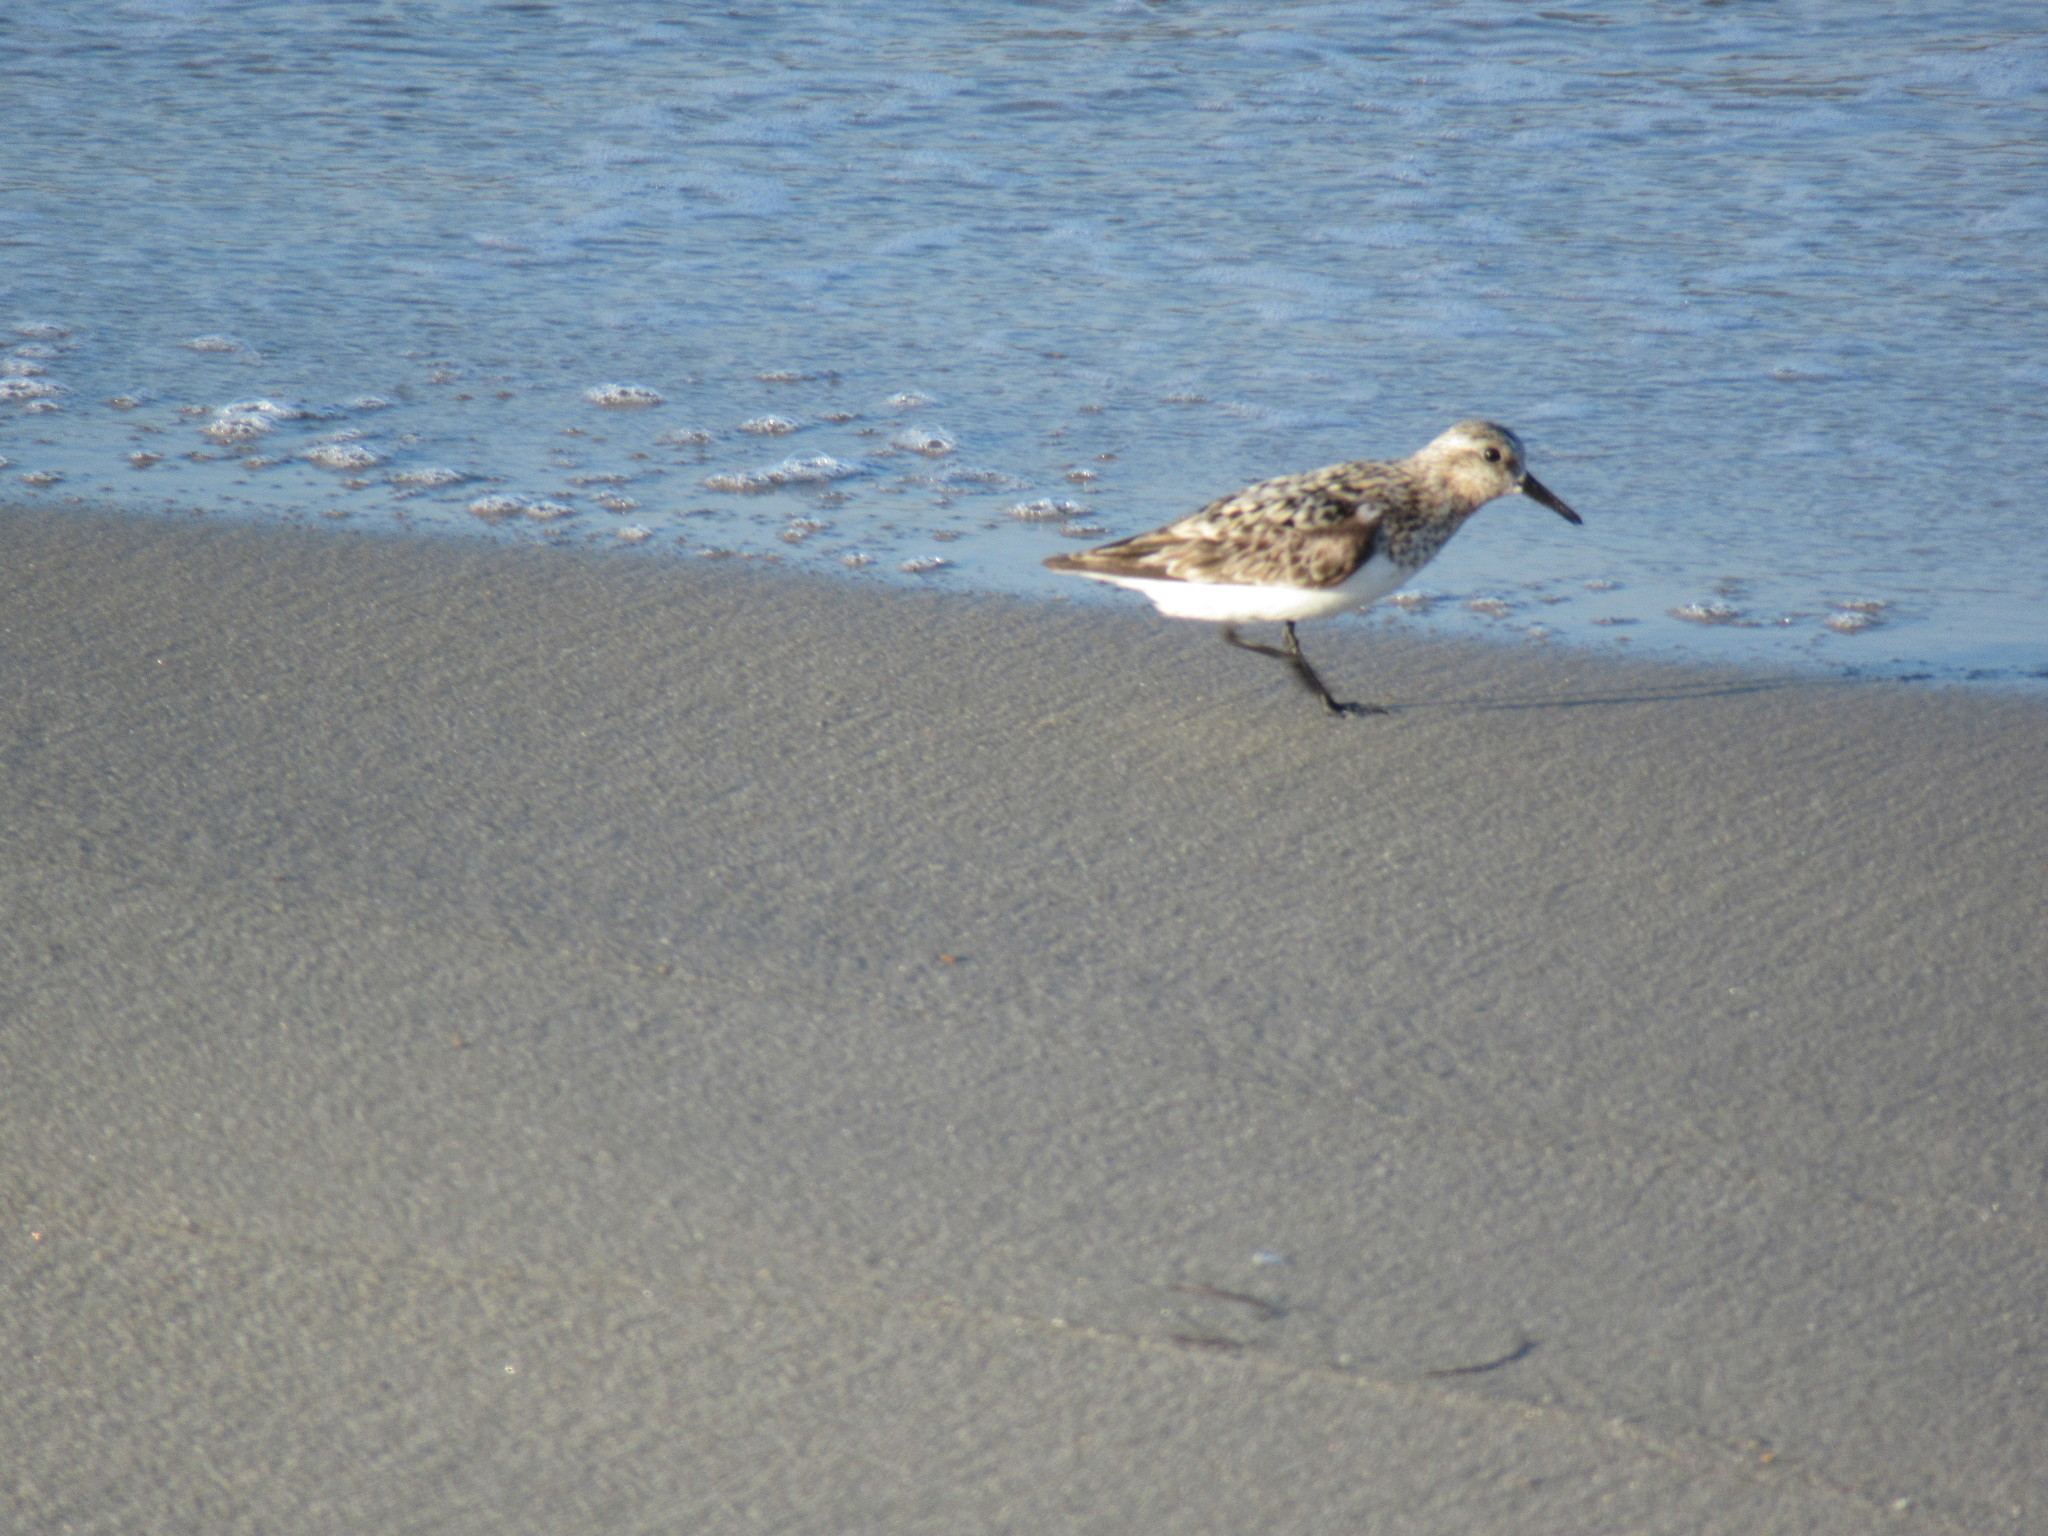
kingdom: Animalia
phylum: Chordata
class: Aves
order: Charadriiformes
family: Scolopacidae
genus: Calidris
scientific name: Calidris alba
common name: Sanderling
